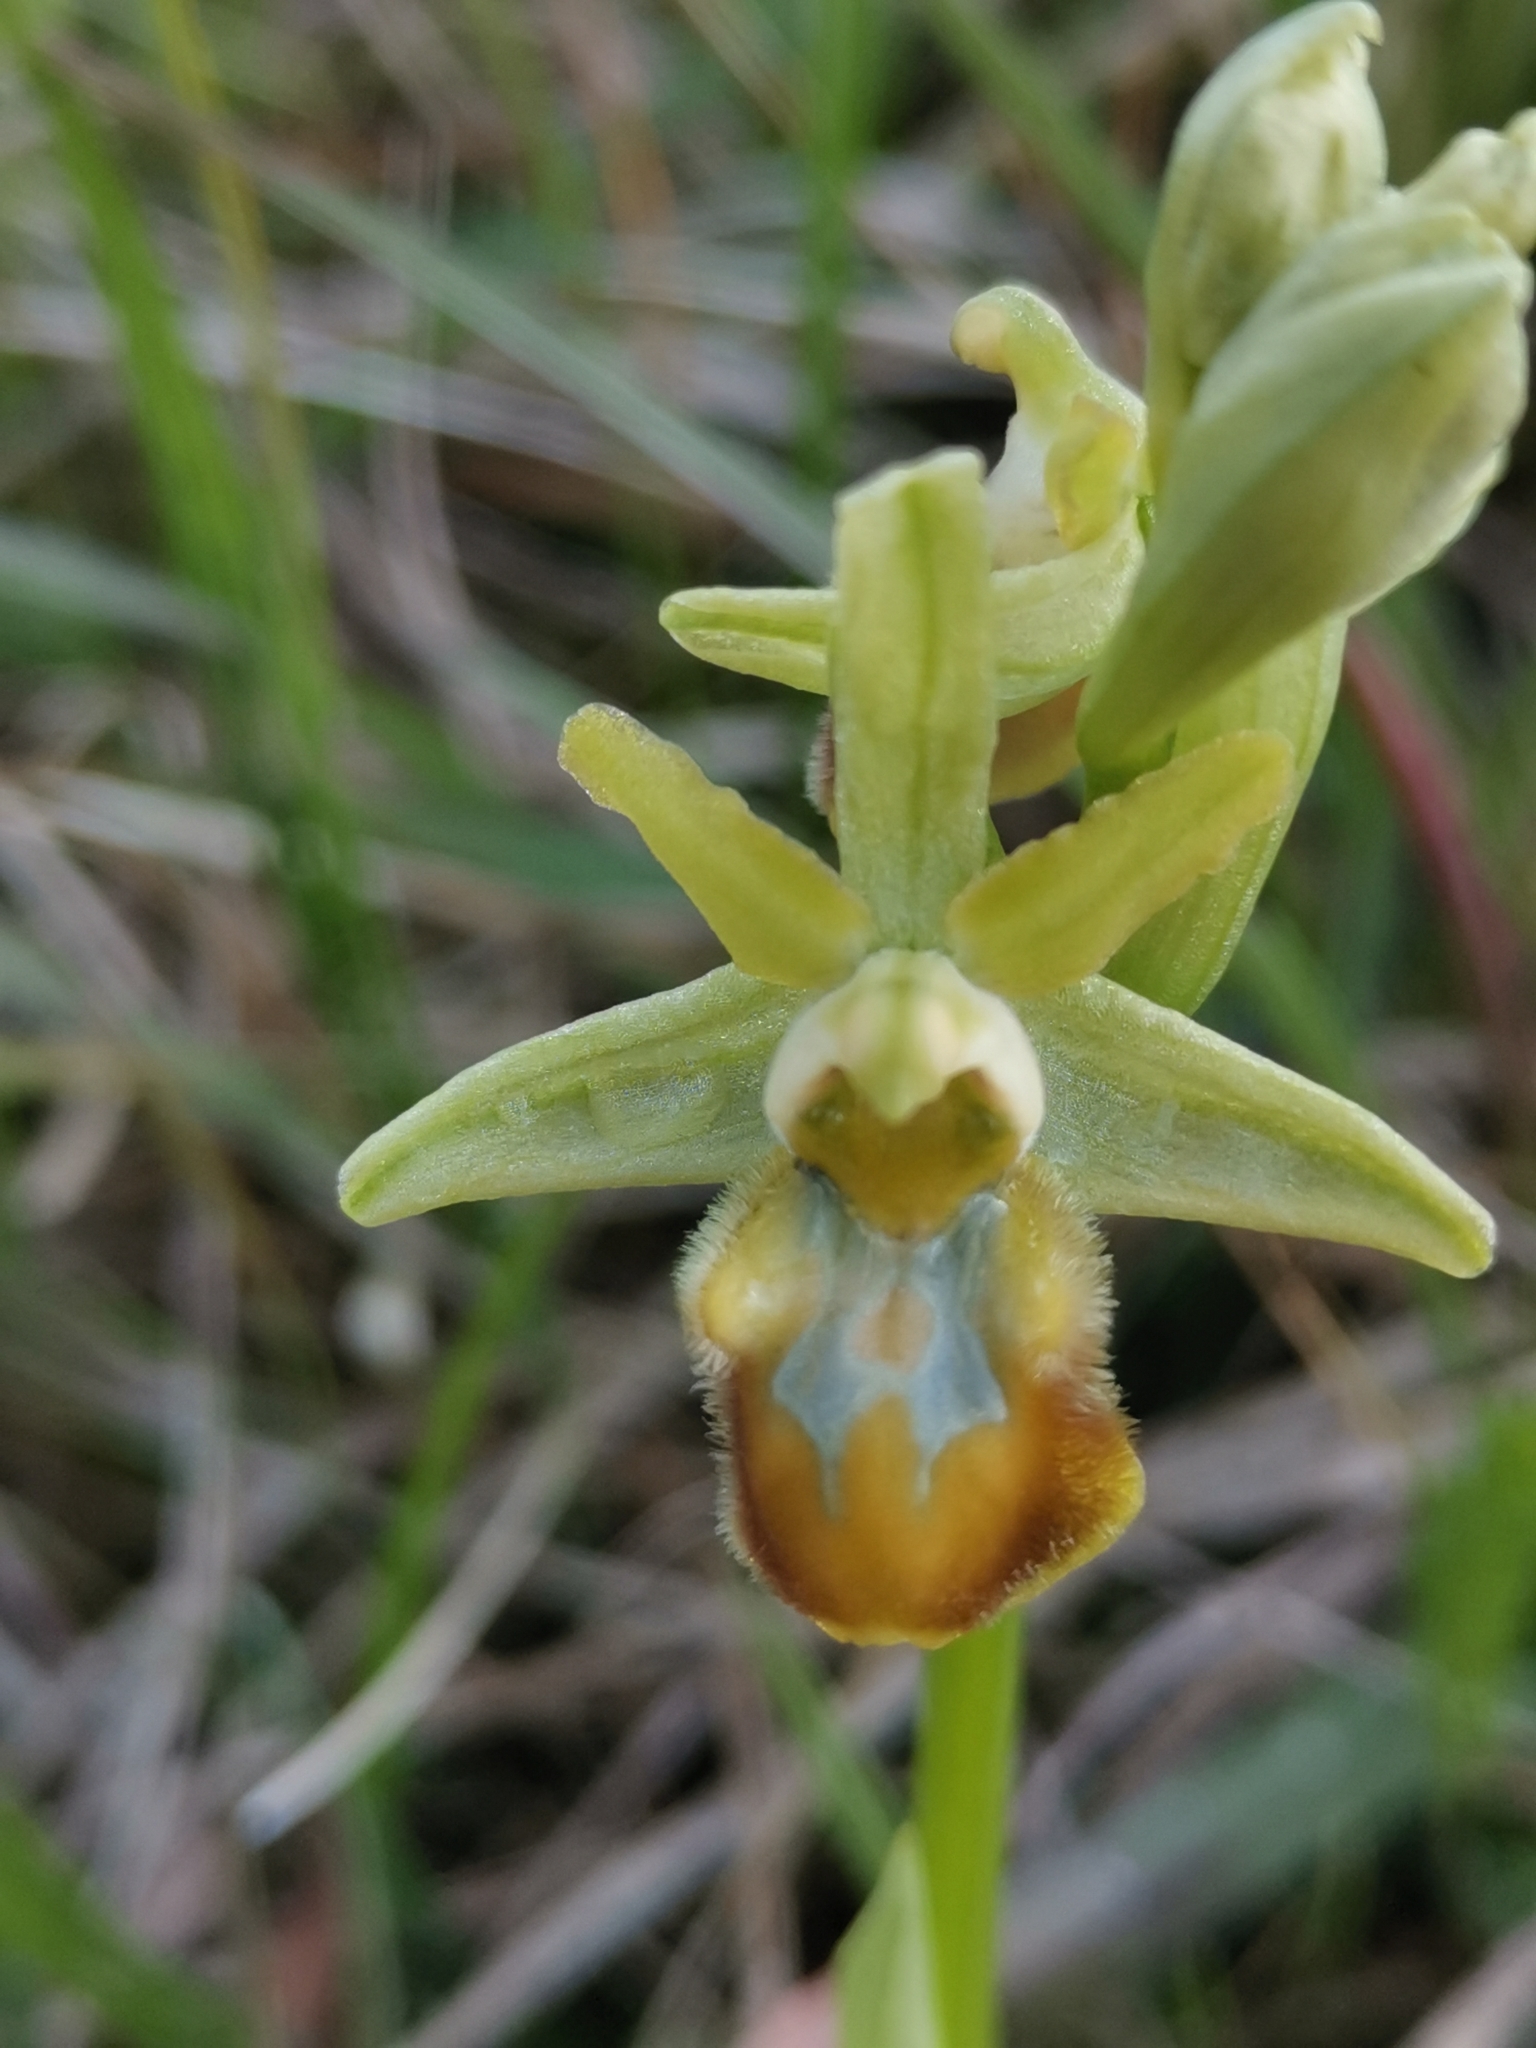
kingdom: Plantae
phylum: Tracheophyta
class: Liliopsida
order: Asparagales
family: Orchidaceae
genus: Ophrys
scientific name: Ophrys sphegodes
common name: Early spider-orchid
